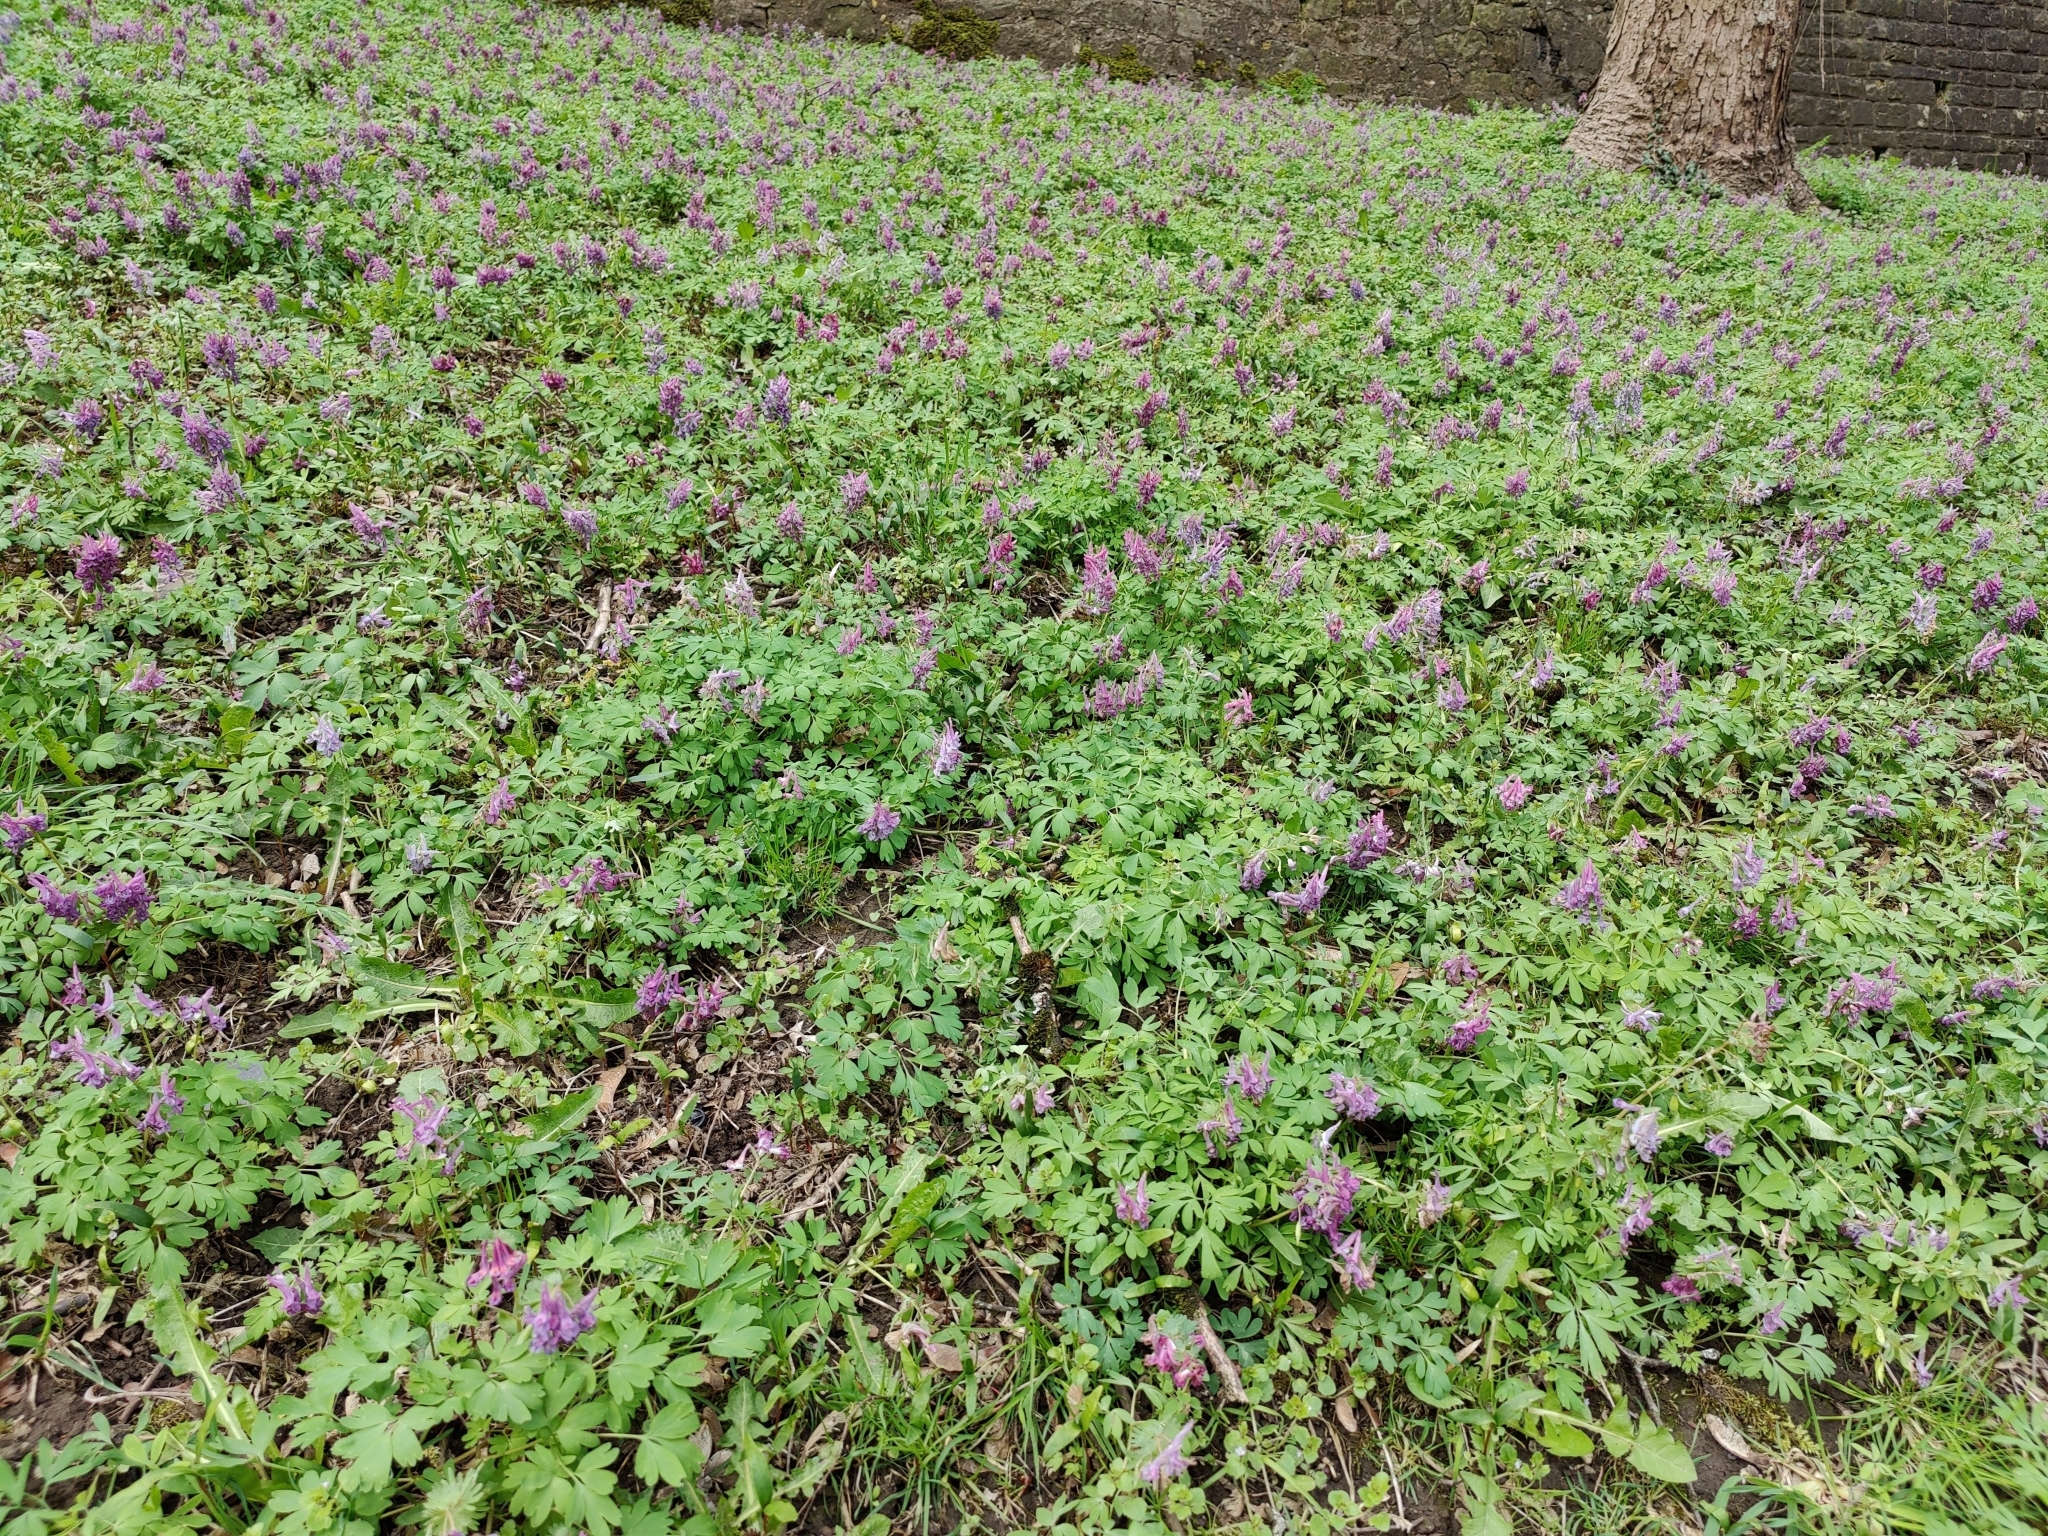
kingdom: Plantae
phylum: Tracheophyta
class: Magnoliopsida
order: Ranunculales
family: Papaveraceae
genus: Corydalis
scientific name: Corydalis solida
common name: Bird-in-a-bush
